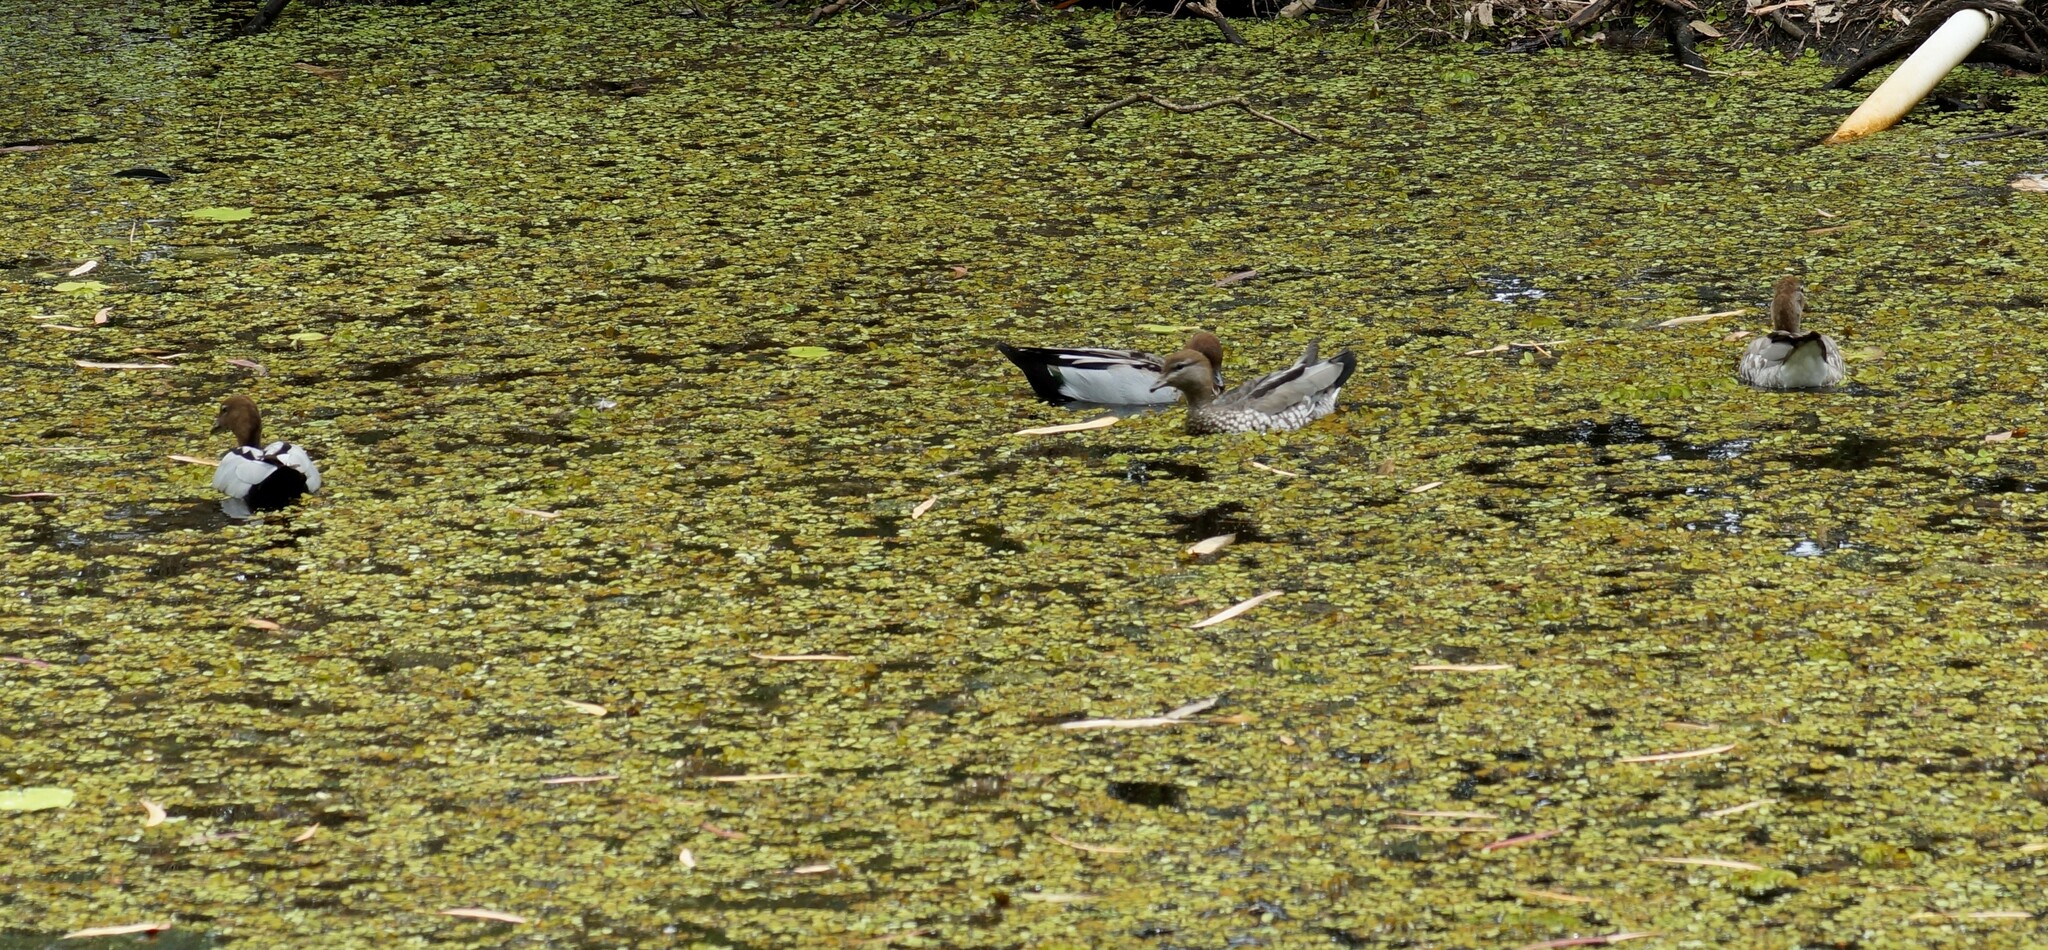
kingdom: Animalia
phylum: Chordata
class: Aves
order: Anseriformes
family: Anatidae
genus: Chenonetta
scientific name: Chenonetta jubata
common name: Maned duck
